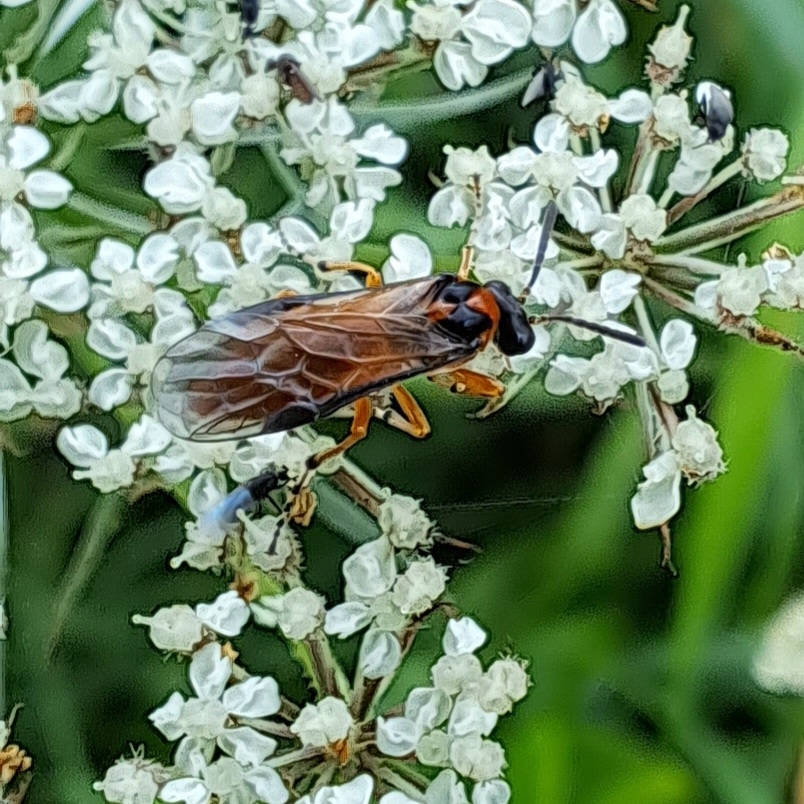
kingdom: Animalia
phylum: Arthropoda
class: Insecta
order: Hymenoptera
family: Tenthredinidae
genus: Athalia
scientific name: Athalia rosae
